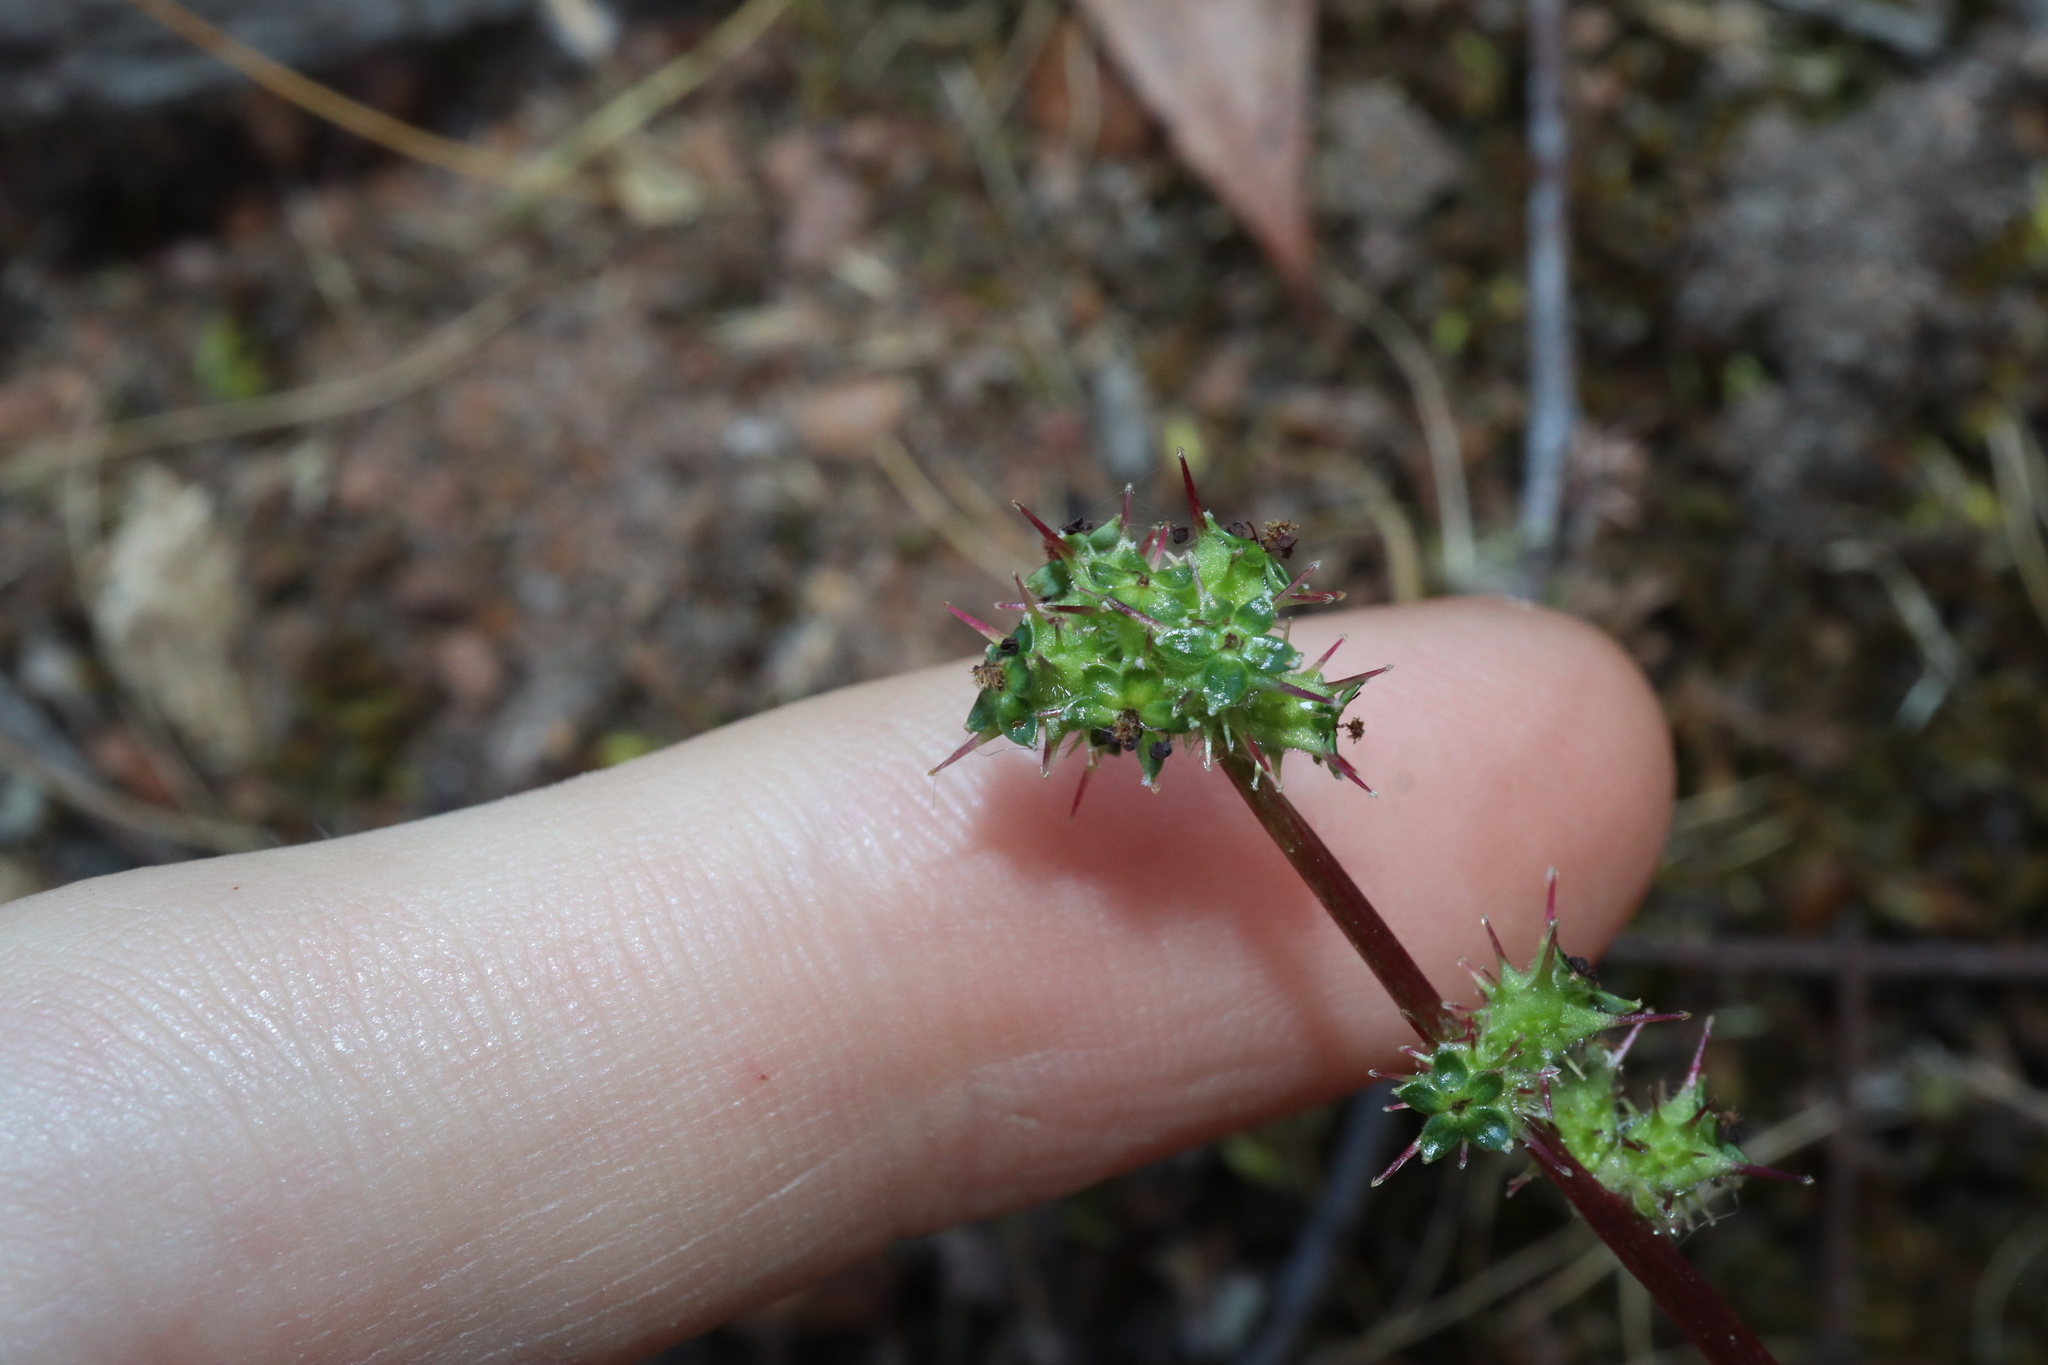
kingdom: Plantae
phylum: Tracheophyta
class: Magnoliopsida
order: Rosales
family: Rosaceae
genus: Acaena
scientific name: Acaena echinata
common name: Sheepbur
